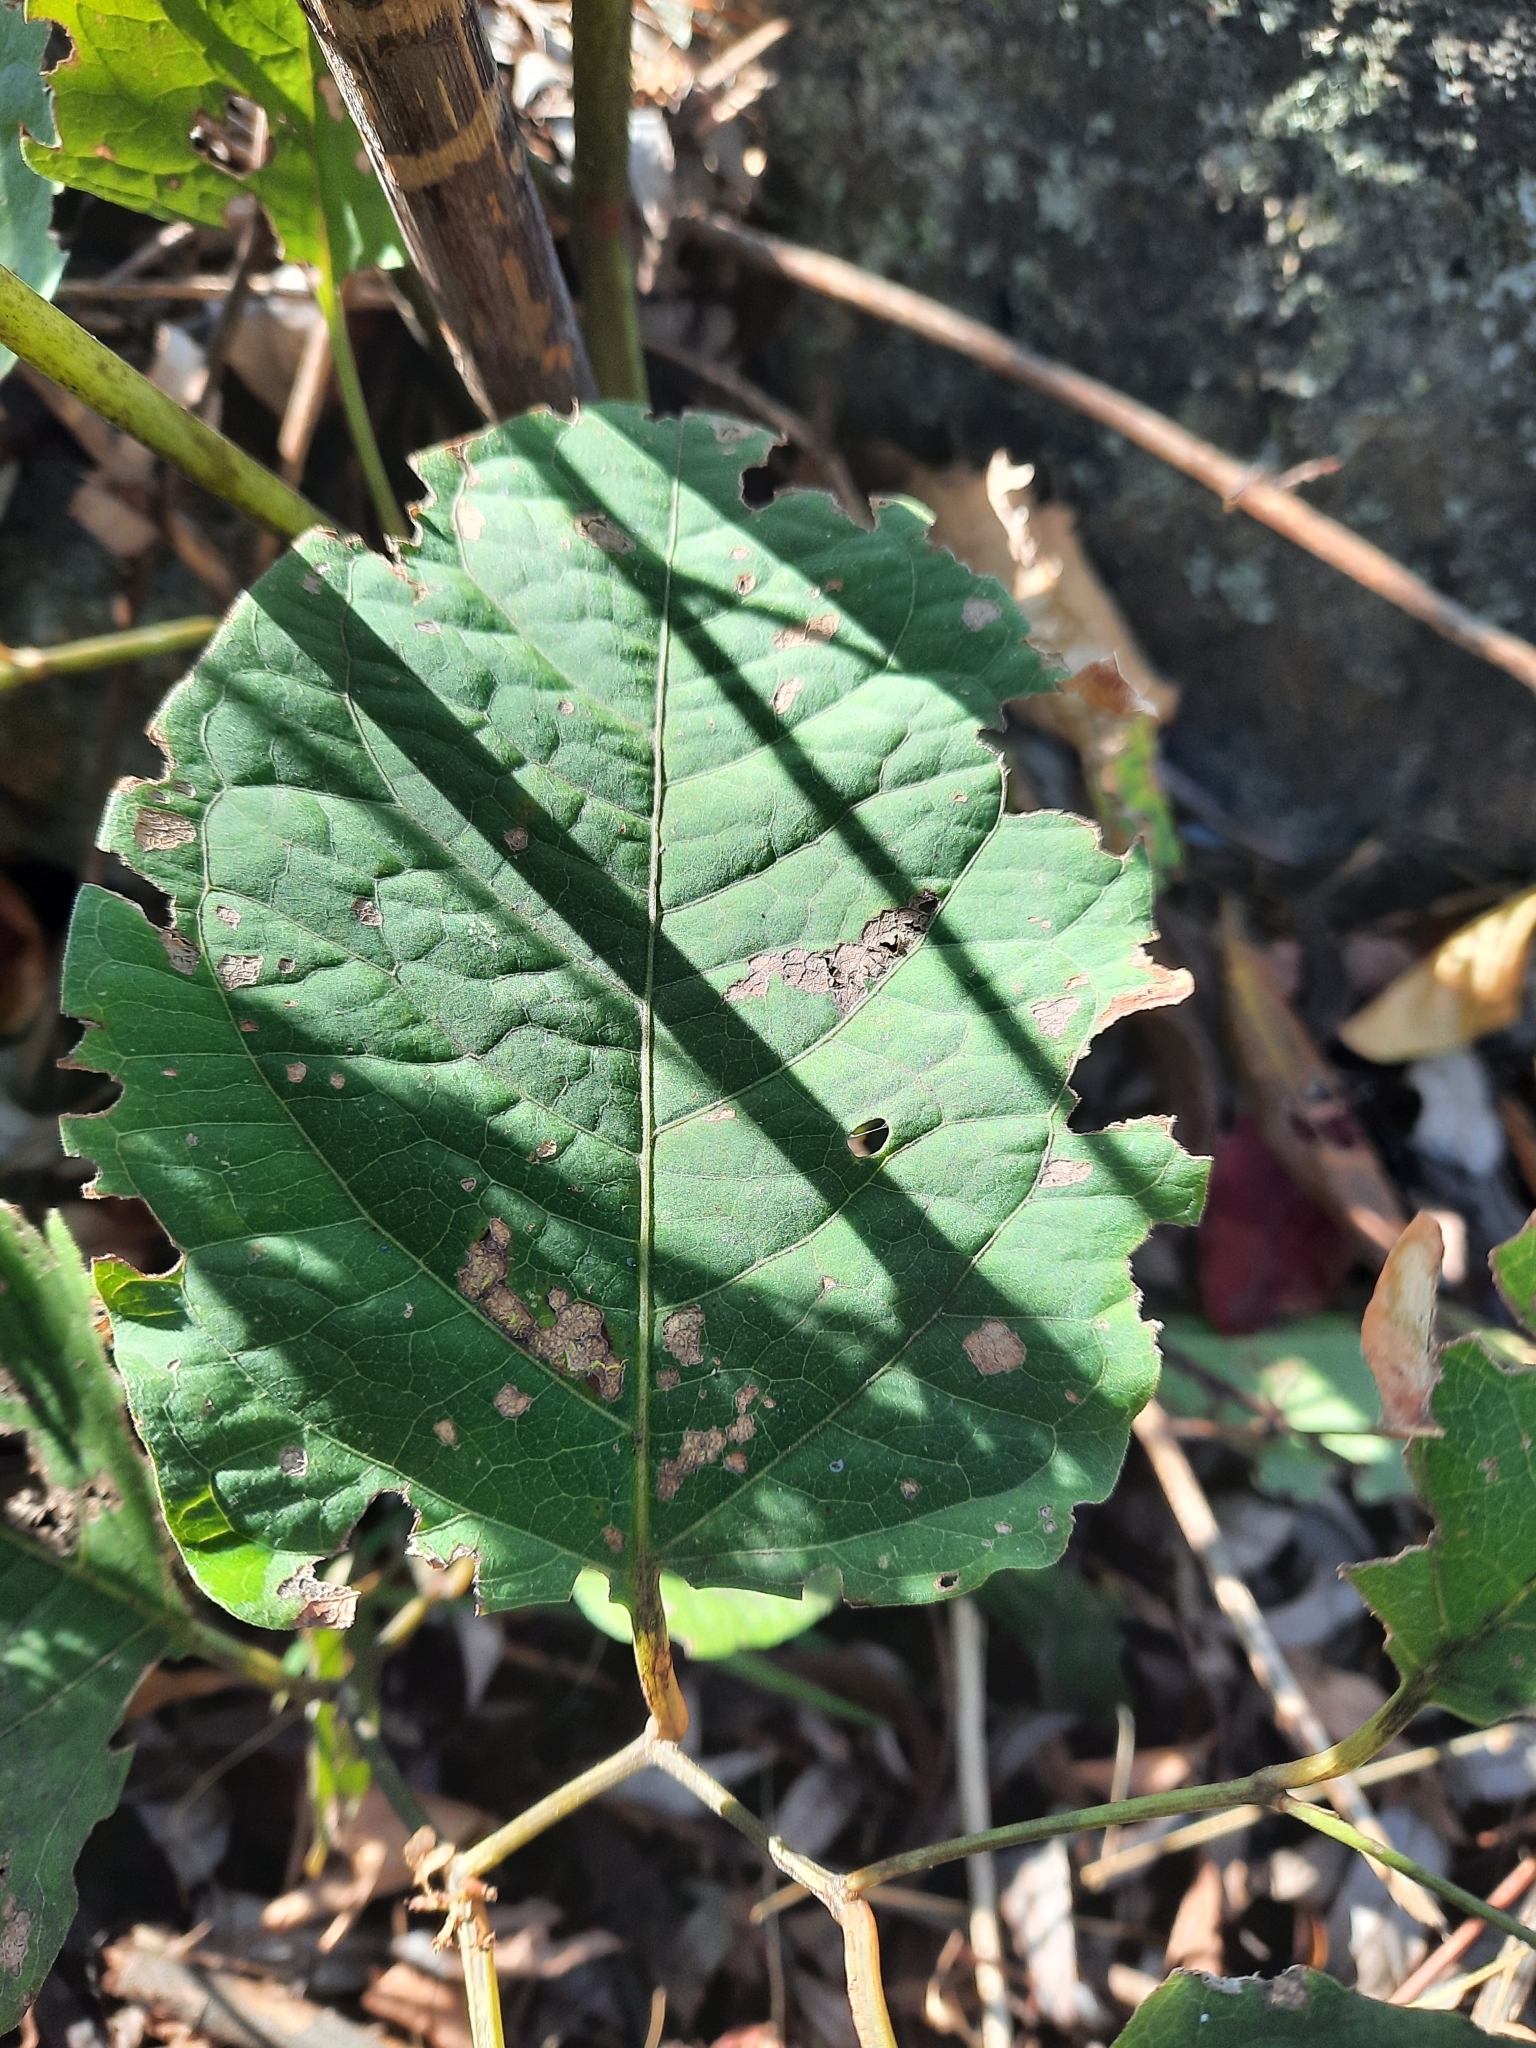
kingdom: Plantae
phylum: Tracheophyta
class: Magnoliopsida
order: Caryophyllales
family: Polygonaceae
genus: Reynoutria
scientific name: Reynoutria japonica
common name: Japanese knotweed
